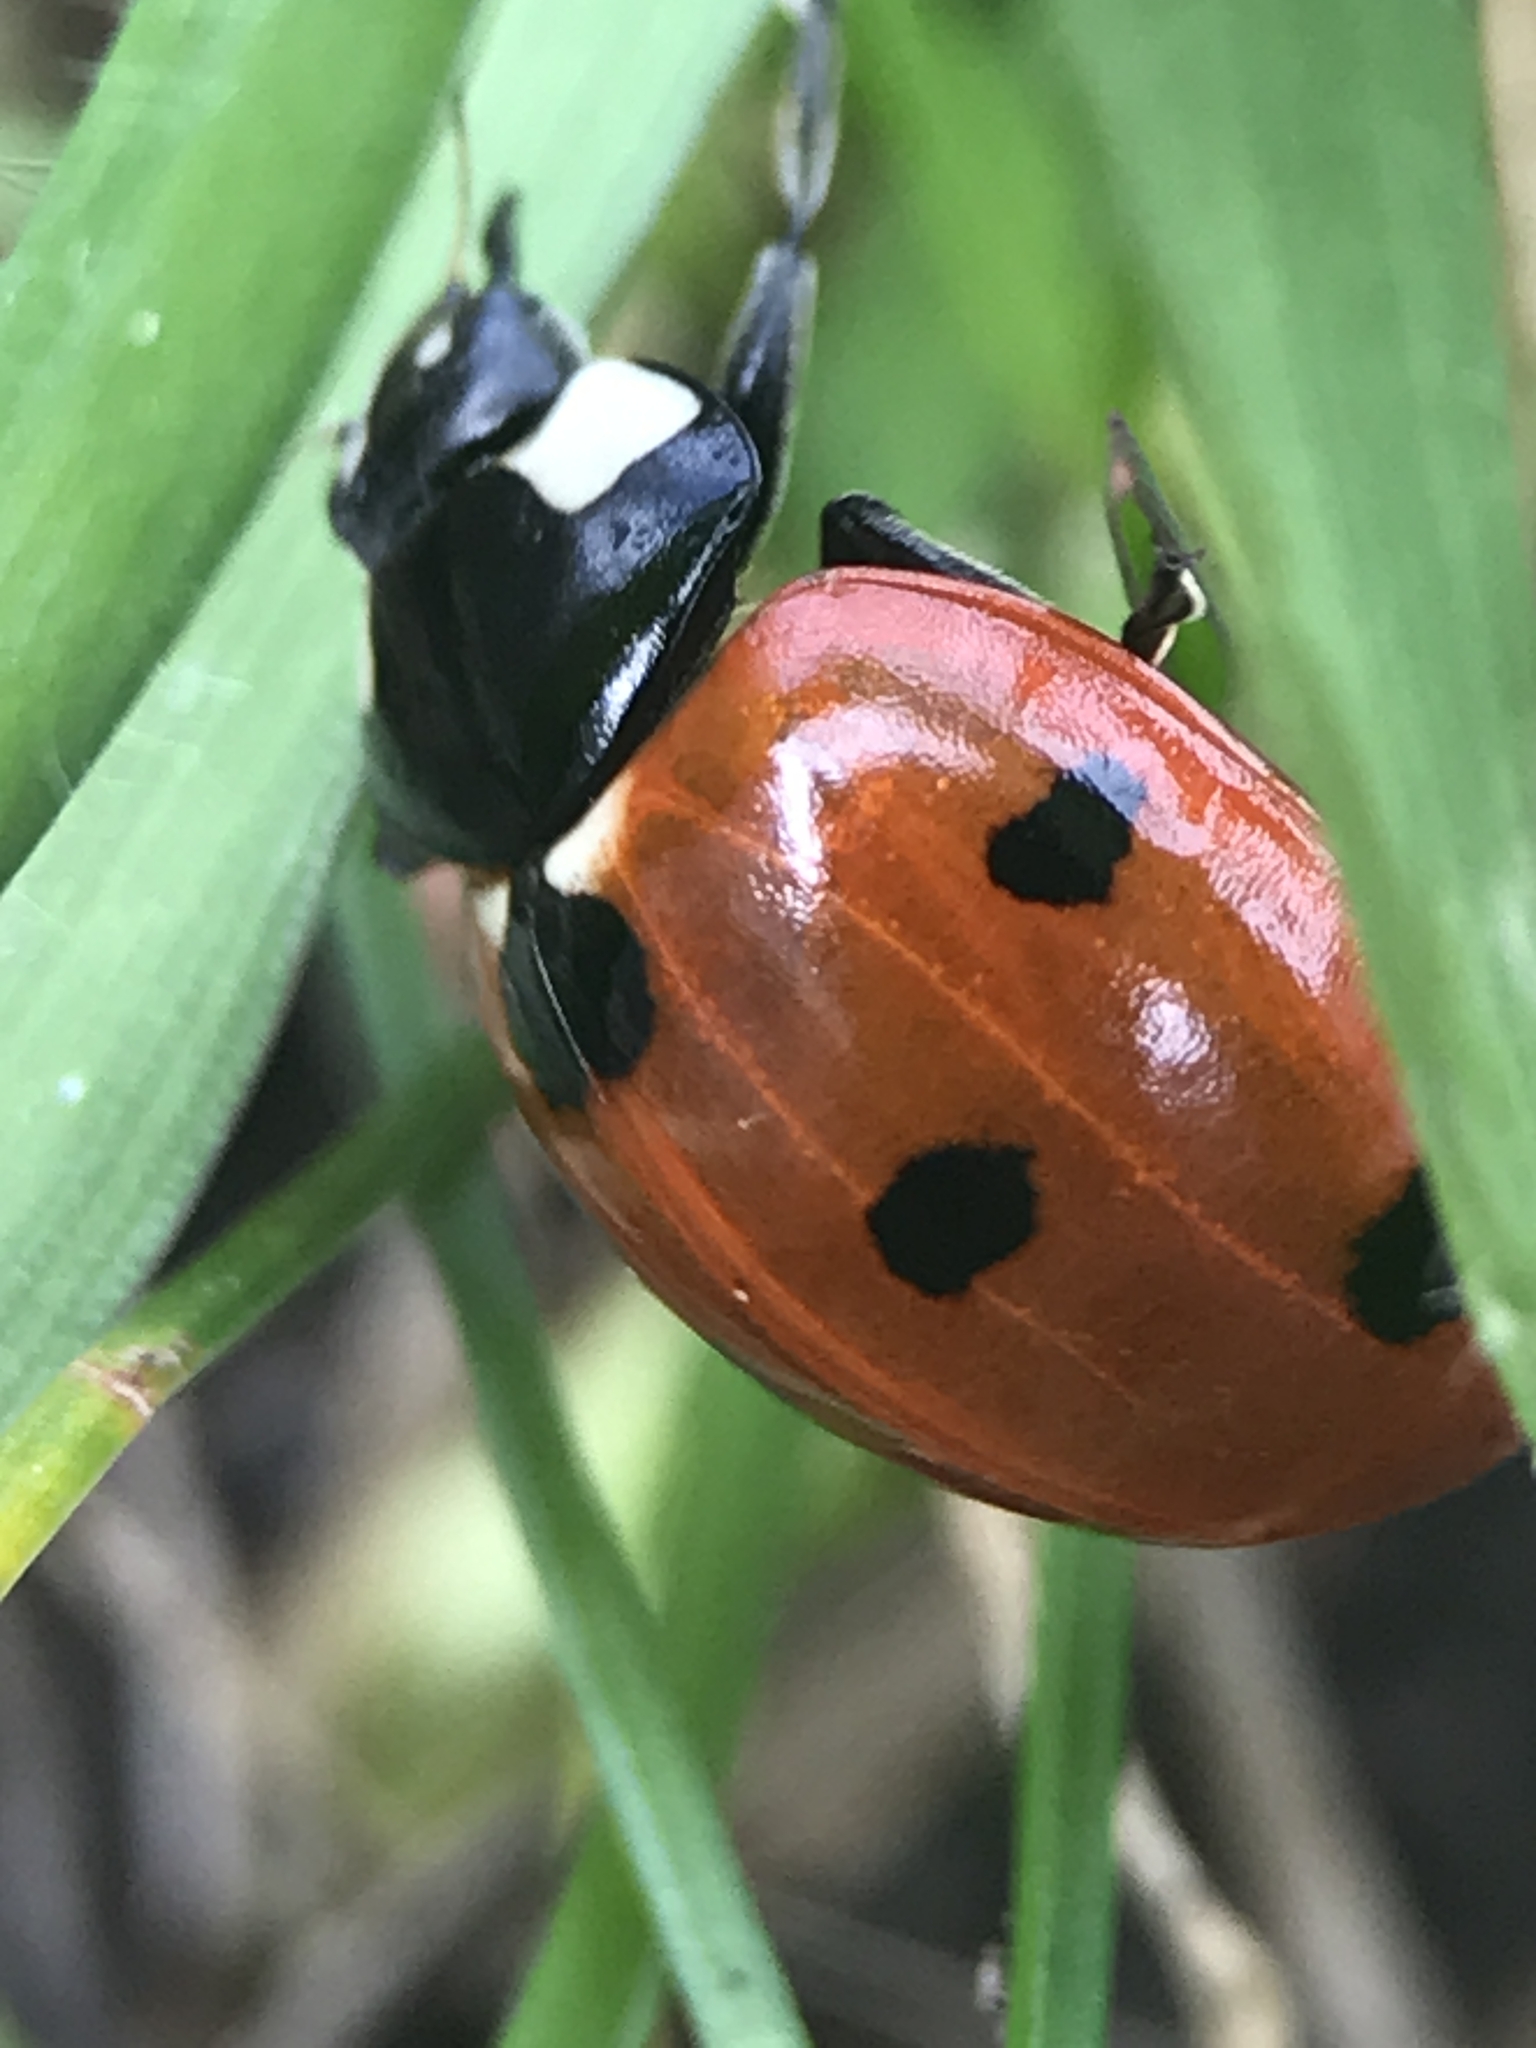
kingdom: Animalia
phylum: Arthropoda
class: Insecta
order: Coleoptera
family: Coccinellidae
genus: Coccinella
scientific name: Coccinella septempunctata
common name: Sevenspotted lady beetle
